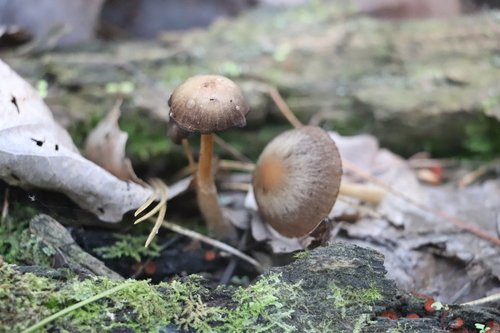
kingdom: Fungi
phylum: Basidiomycota
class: Agaricomycetes
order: Agaricales
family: Psathyrellaceae
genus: Psathyrella
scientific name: Psathyrella
